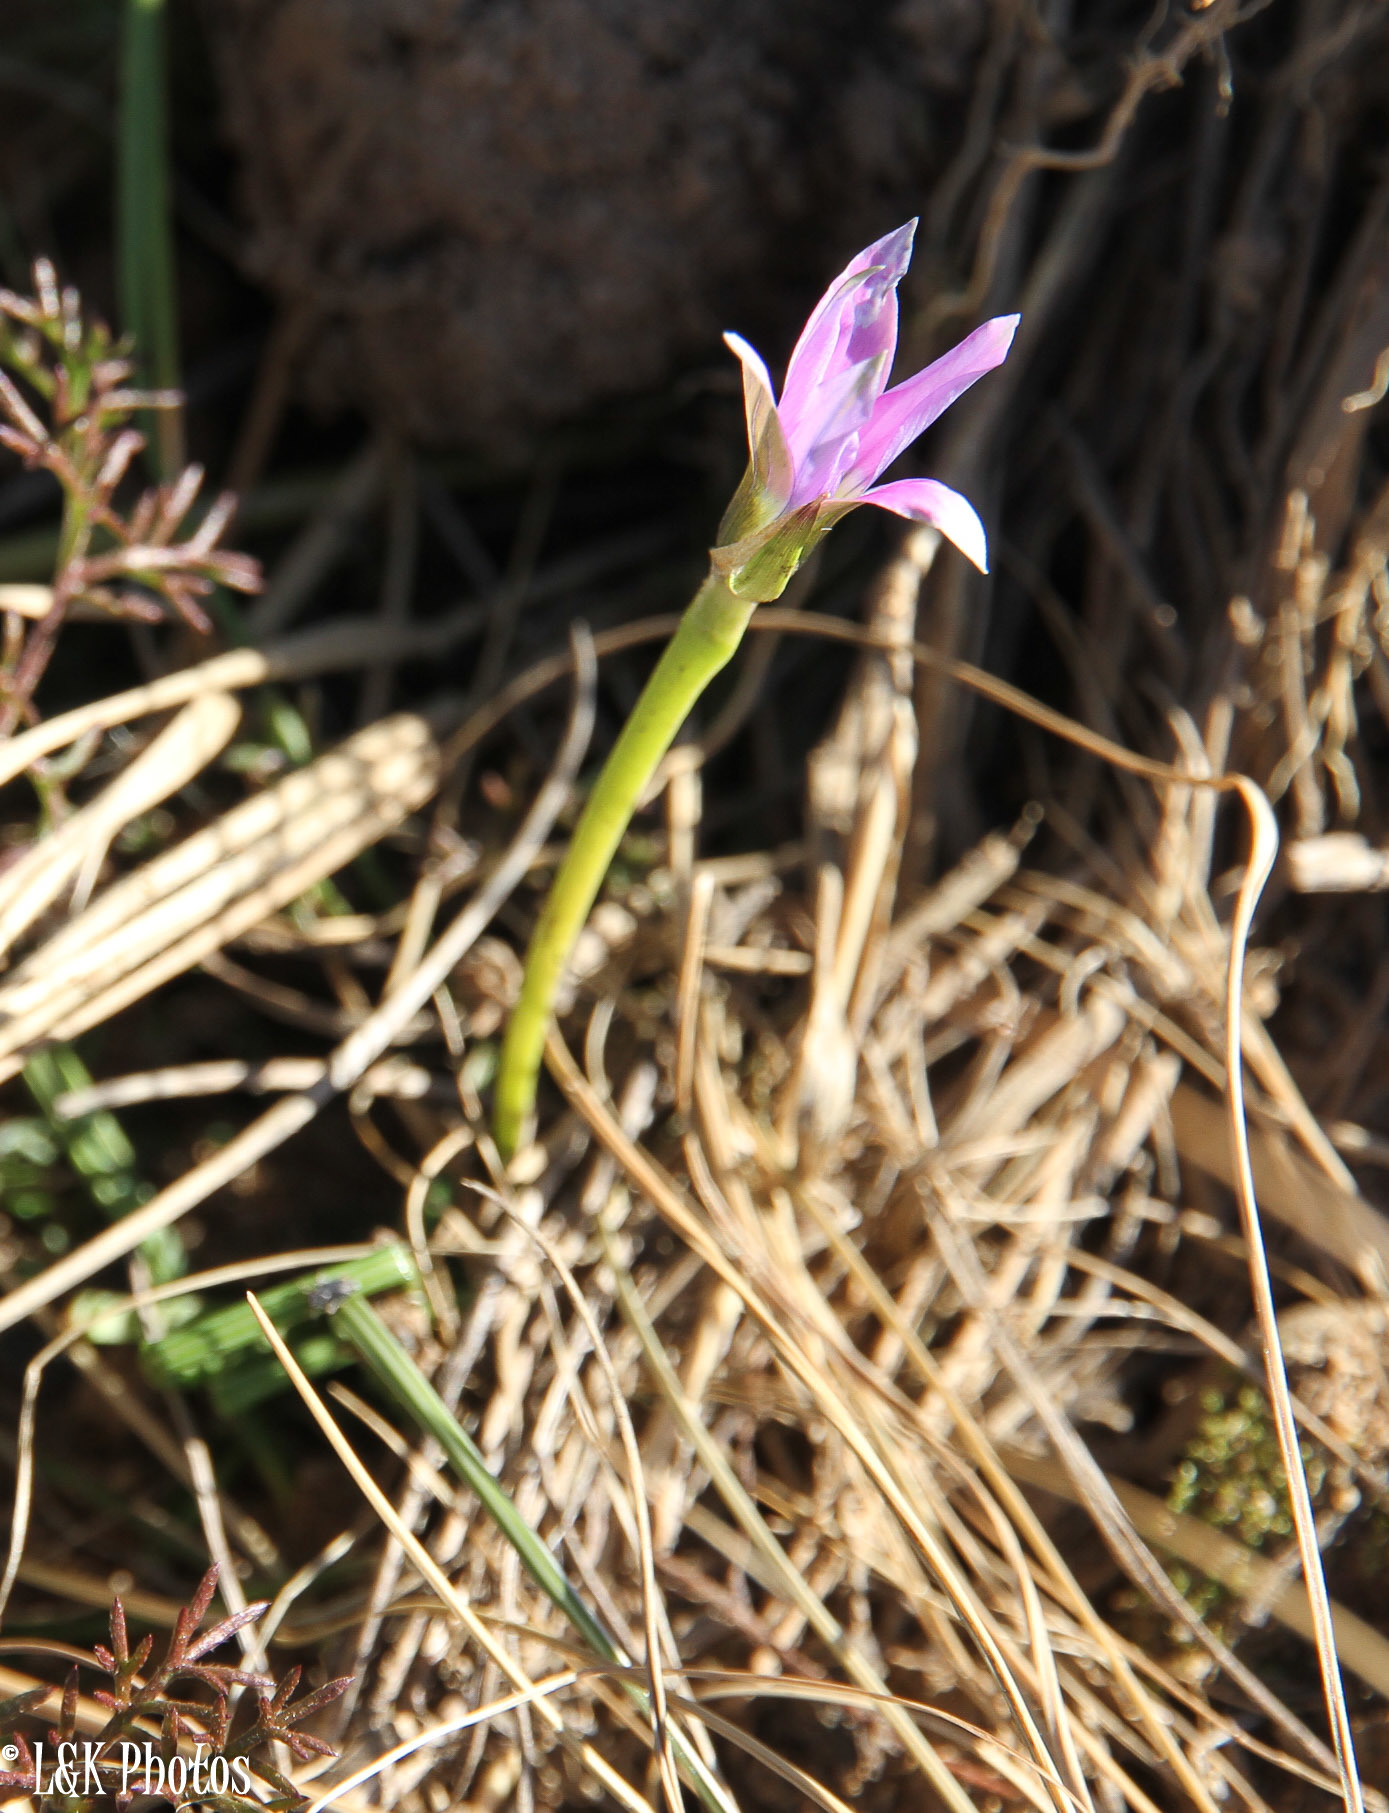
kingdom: Plantae
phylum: Tracheophyta
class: Liliopsida
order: Asparagales
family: Iridaceae
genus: Romulea
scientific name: Romulea rosea
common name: Oniongrass
